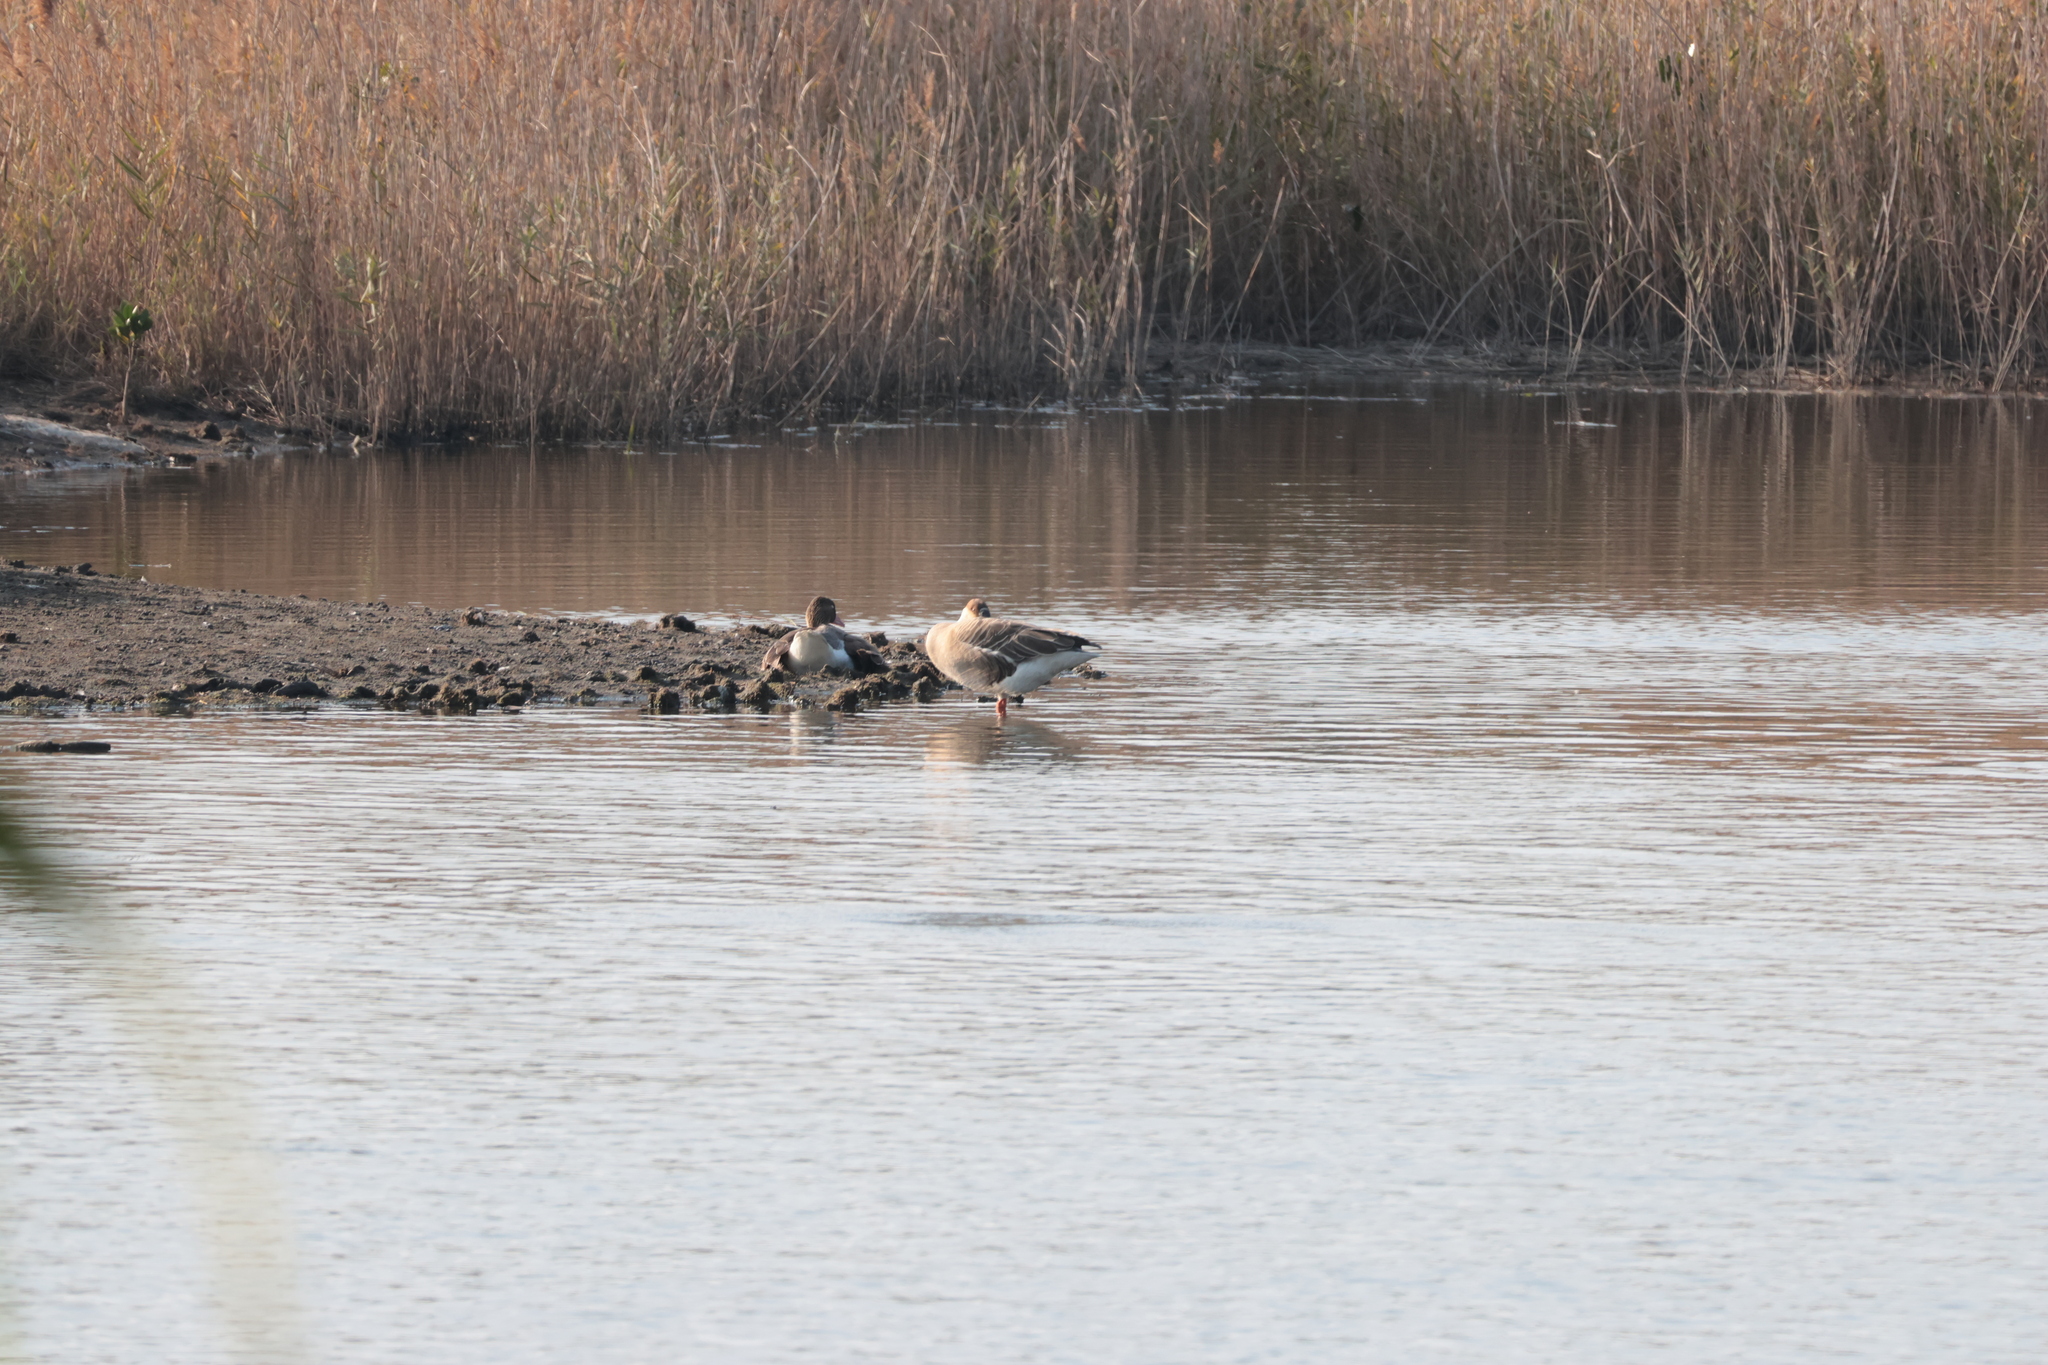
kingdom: Animalia
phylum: Chordata
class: Aves
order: Anseriformes
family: Anatidae
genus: Anser
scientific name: Anser cygnoides
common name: Swan goose
